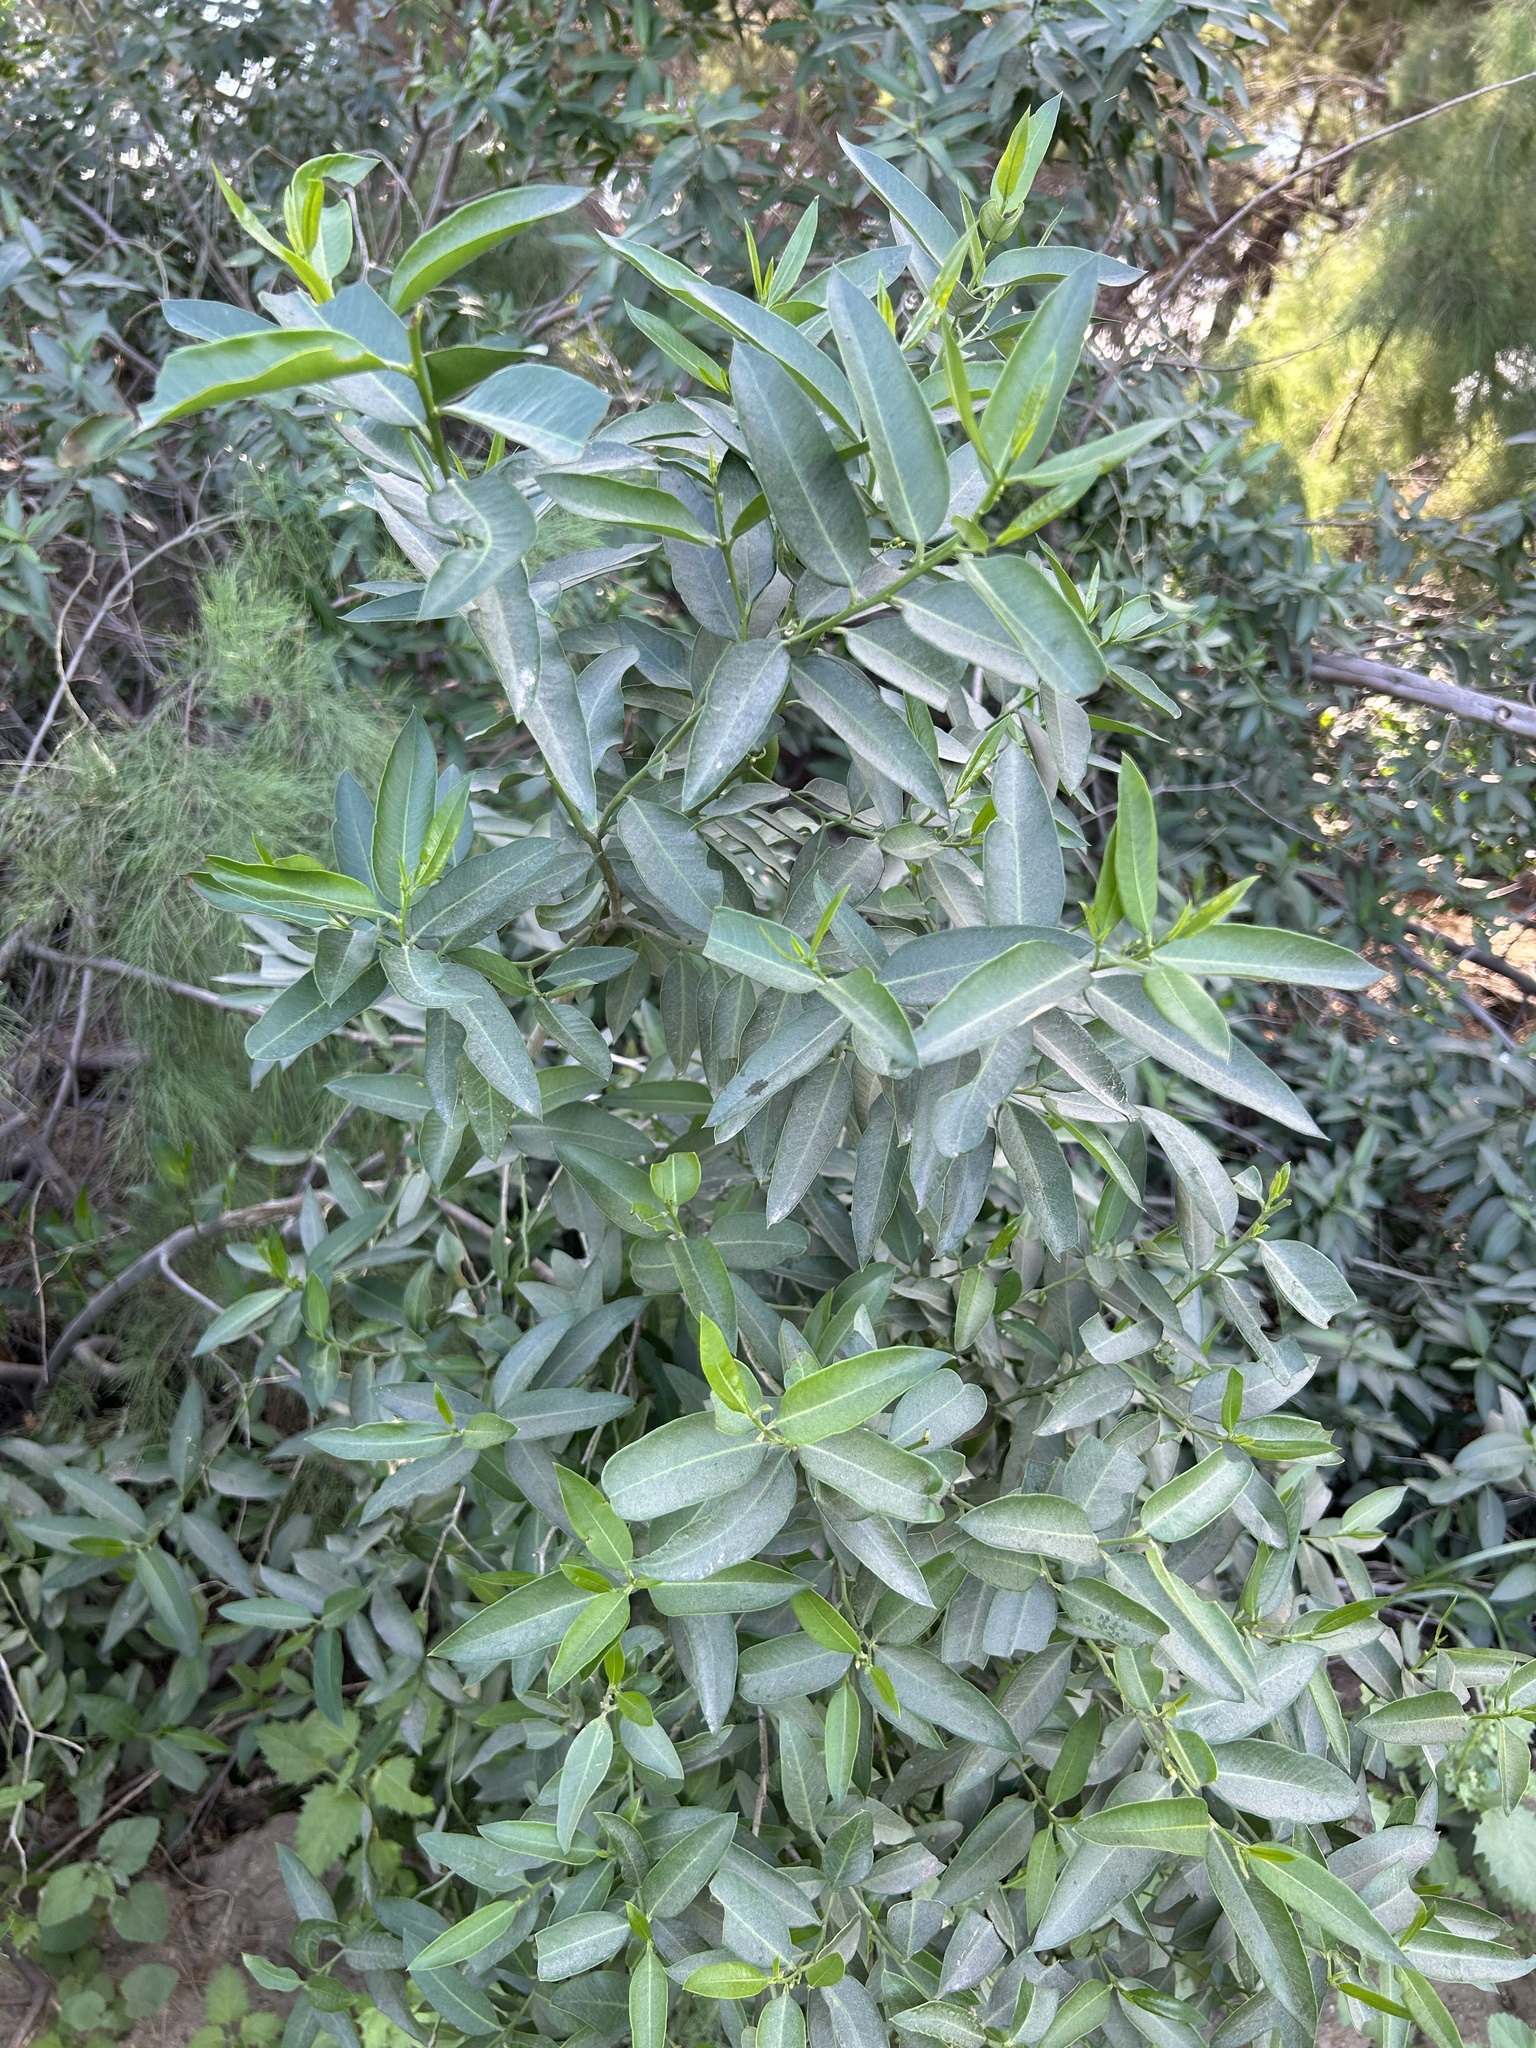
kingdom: Plantae
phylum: Tracheophyta
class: Magnoliopsida
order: Gentianales
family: Apocynaceae
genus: Vallesia
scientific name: Vallesia glabra
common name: Pearlberry
